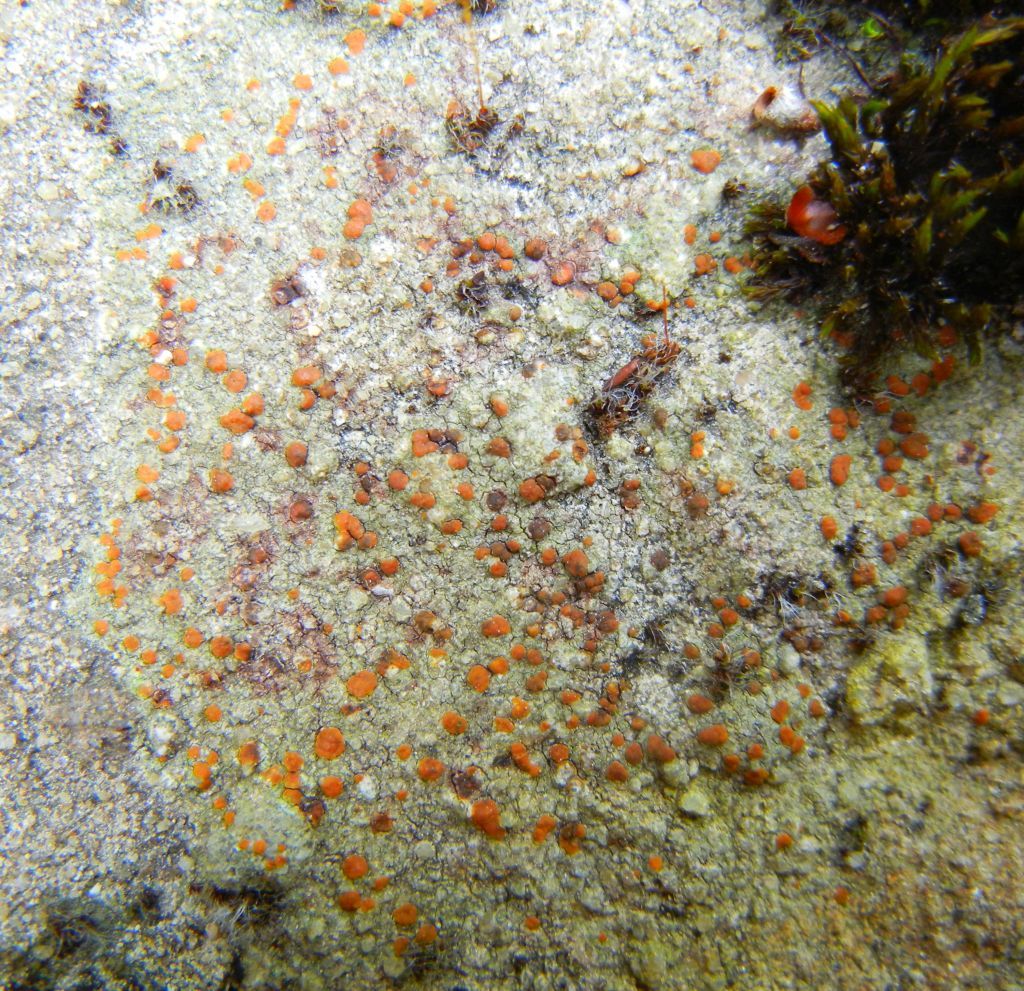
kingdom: Fungi
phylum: Ascomycota
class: Lecanoromycetes
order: Lecanorales
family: Psoraceae
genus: Protoblastenia
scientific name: Protoblastenia rupestris
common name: Chewing gum lichen
